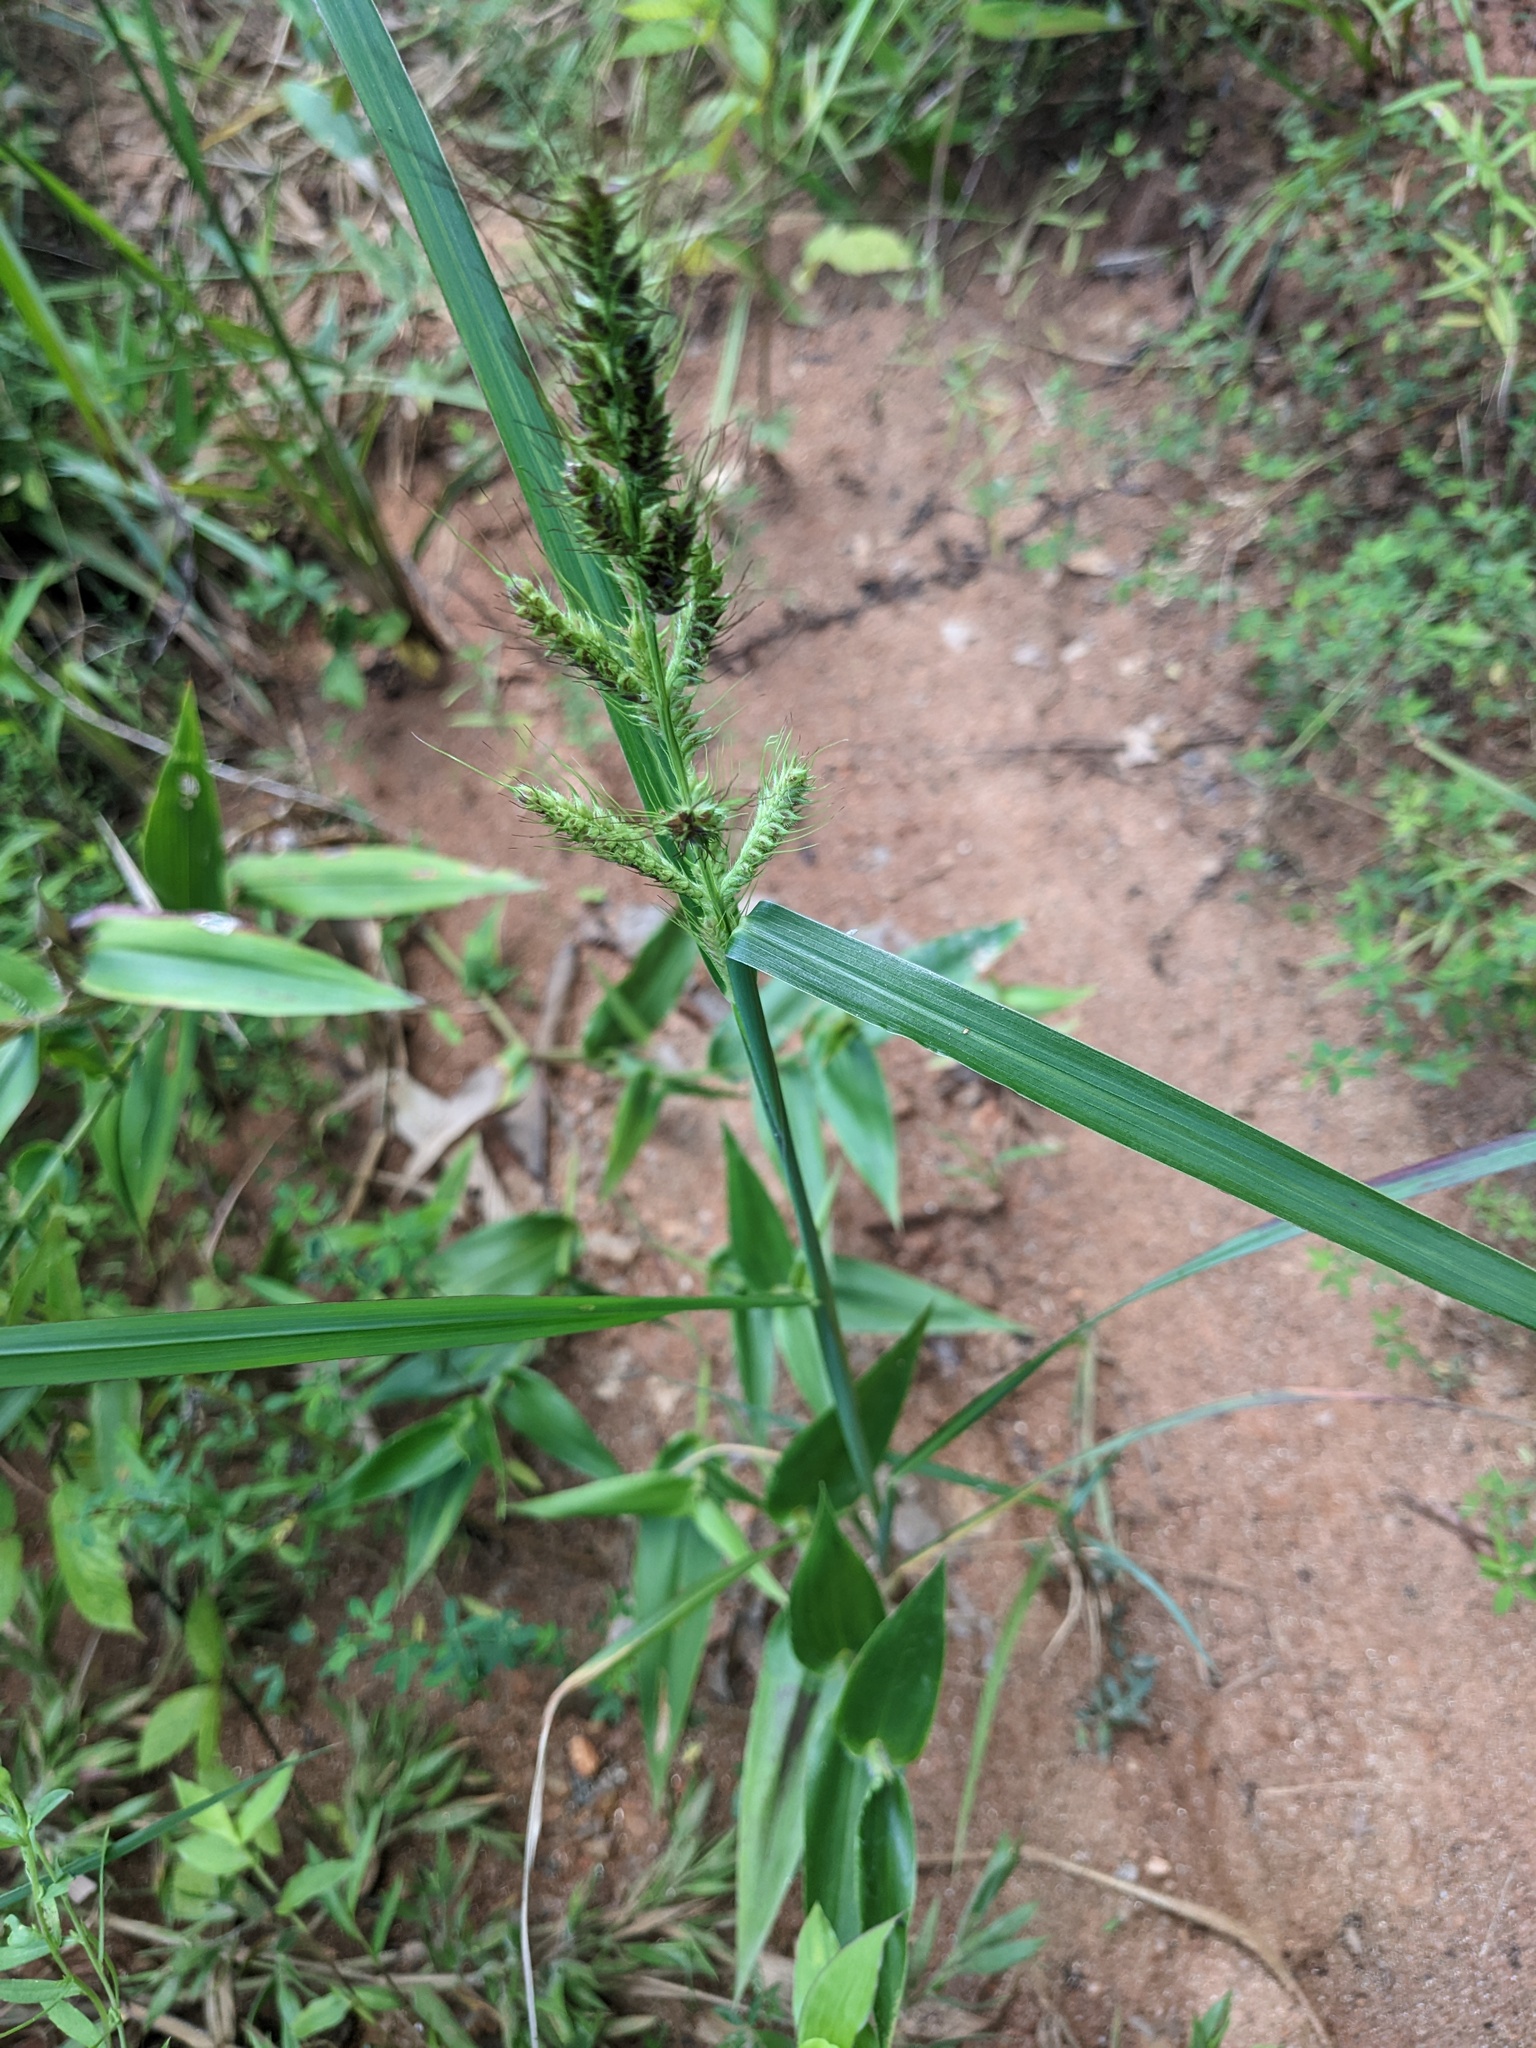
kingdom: Plantae
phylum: Tracheophyta
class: Liliopsida
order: Poales
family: Poaceae
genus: Echinochloa
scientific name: Echinochloa crus-galli
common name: Cockspur
